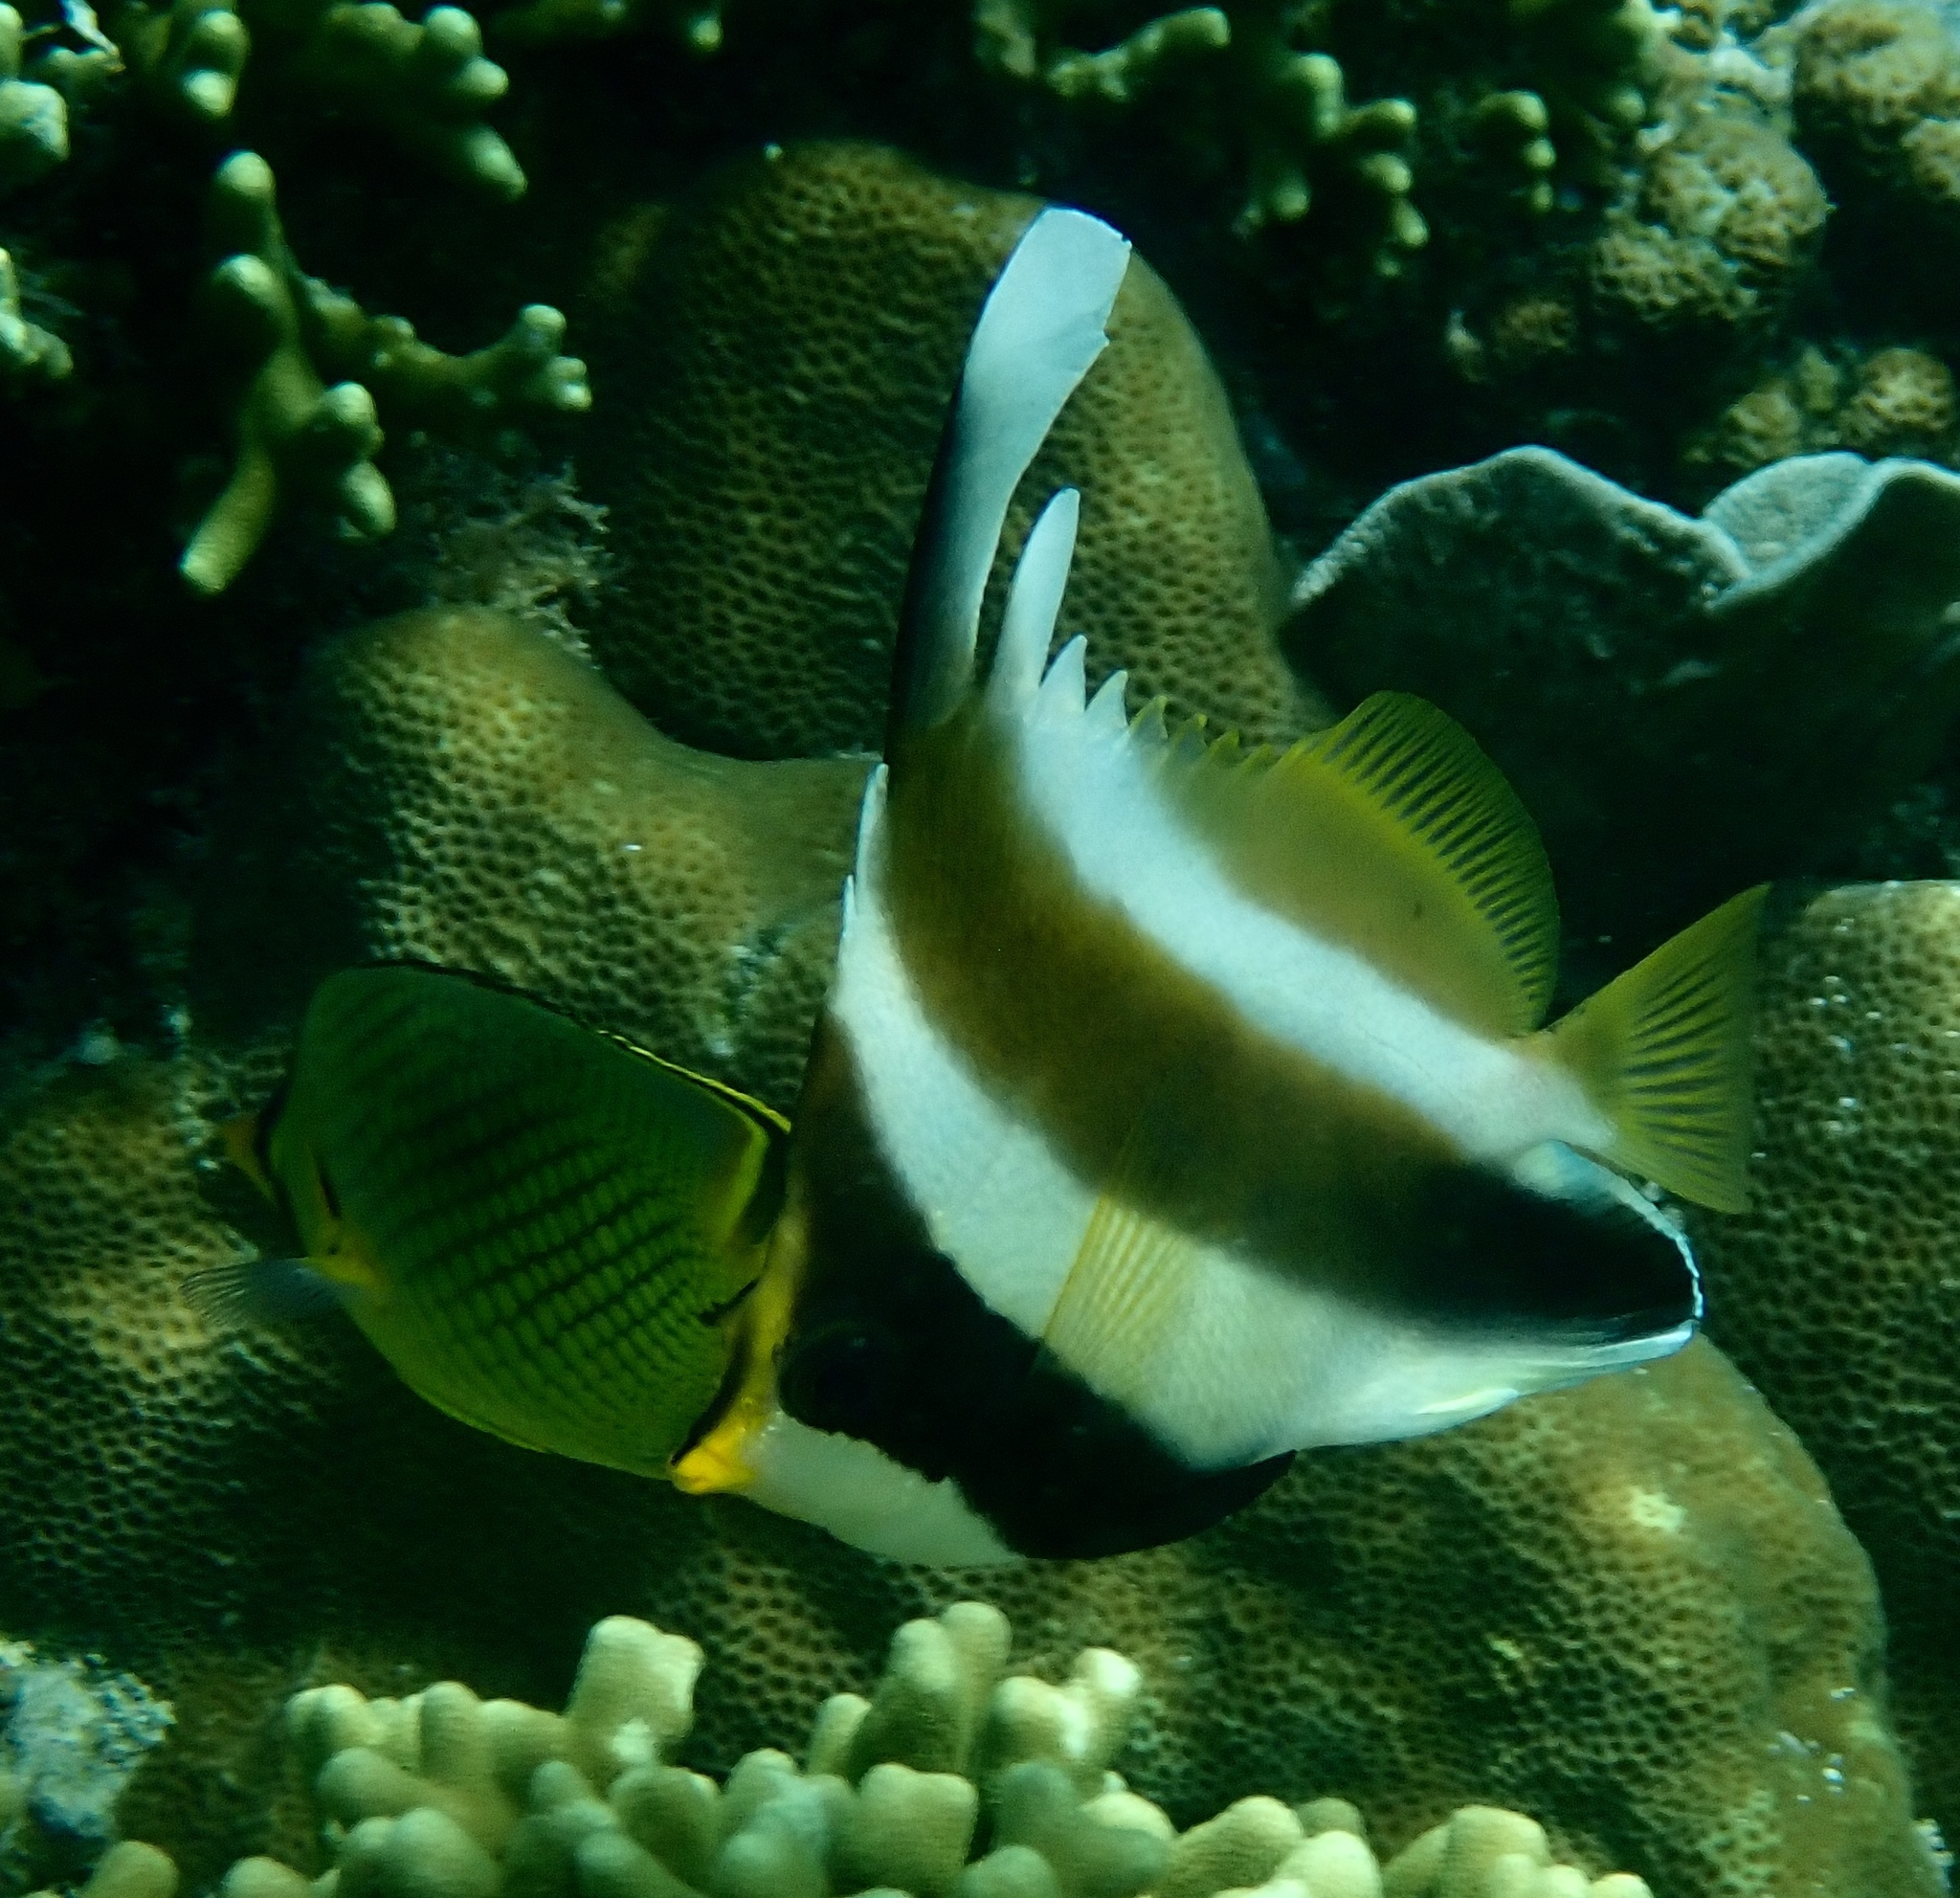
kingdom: Animalia
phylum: Chordata
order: Perciformes
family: Chaetodontidae
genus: Heniochus
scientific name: Heniochus chrysostomus
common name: Horned bannerfish
